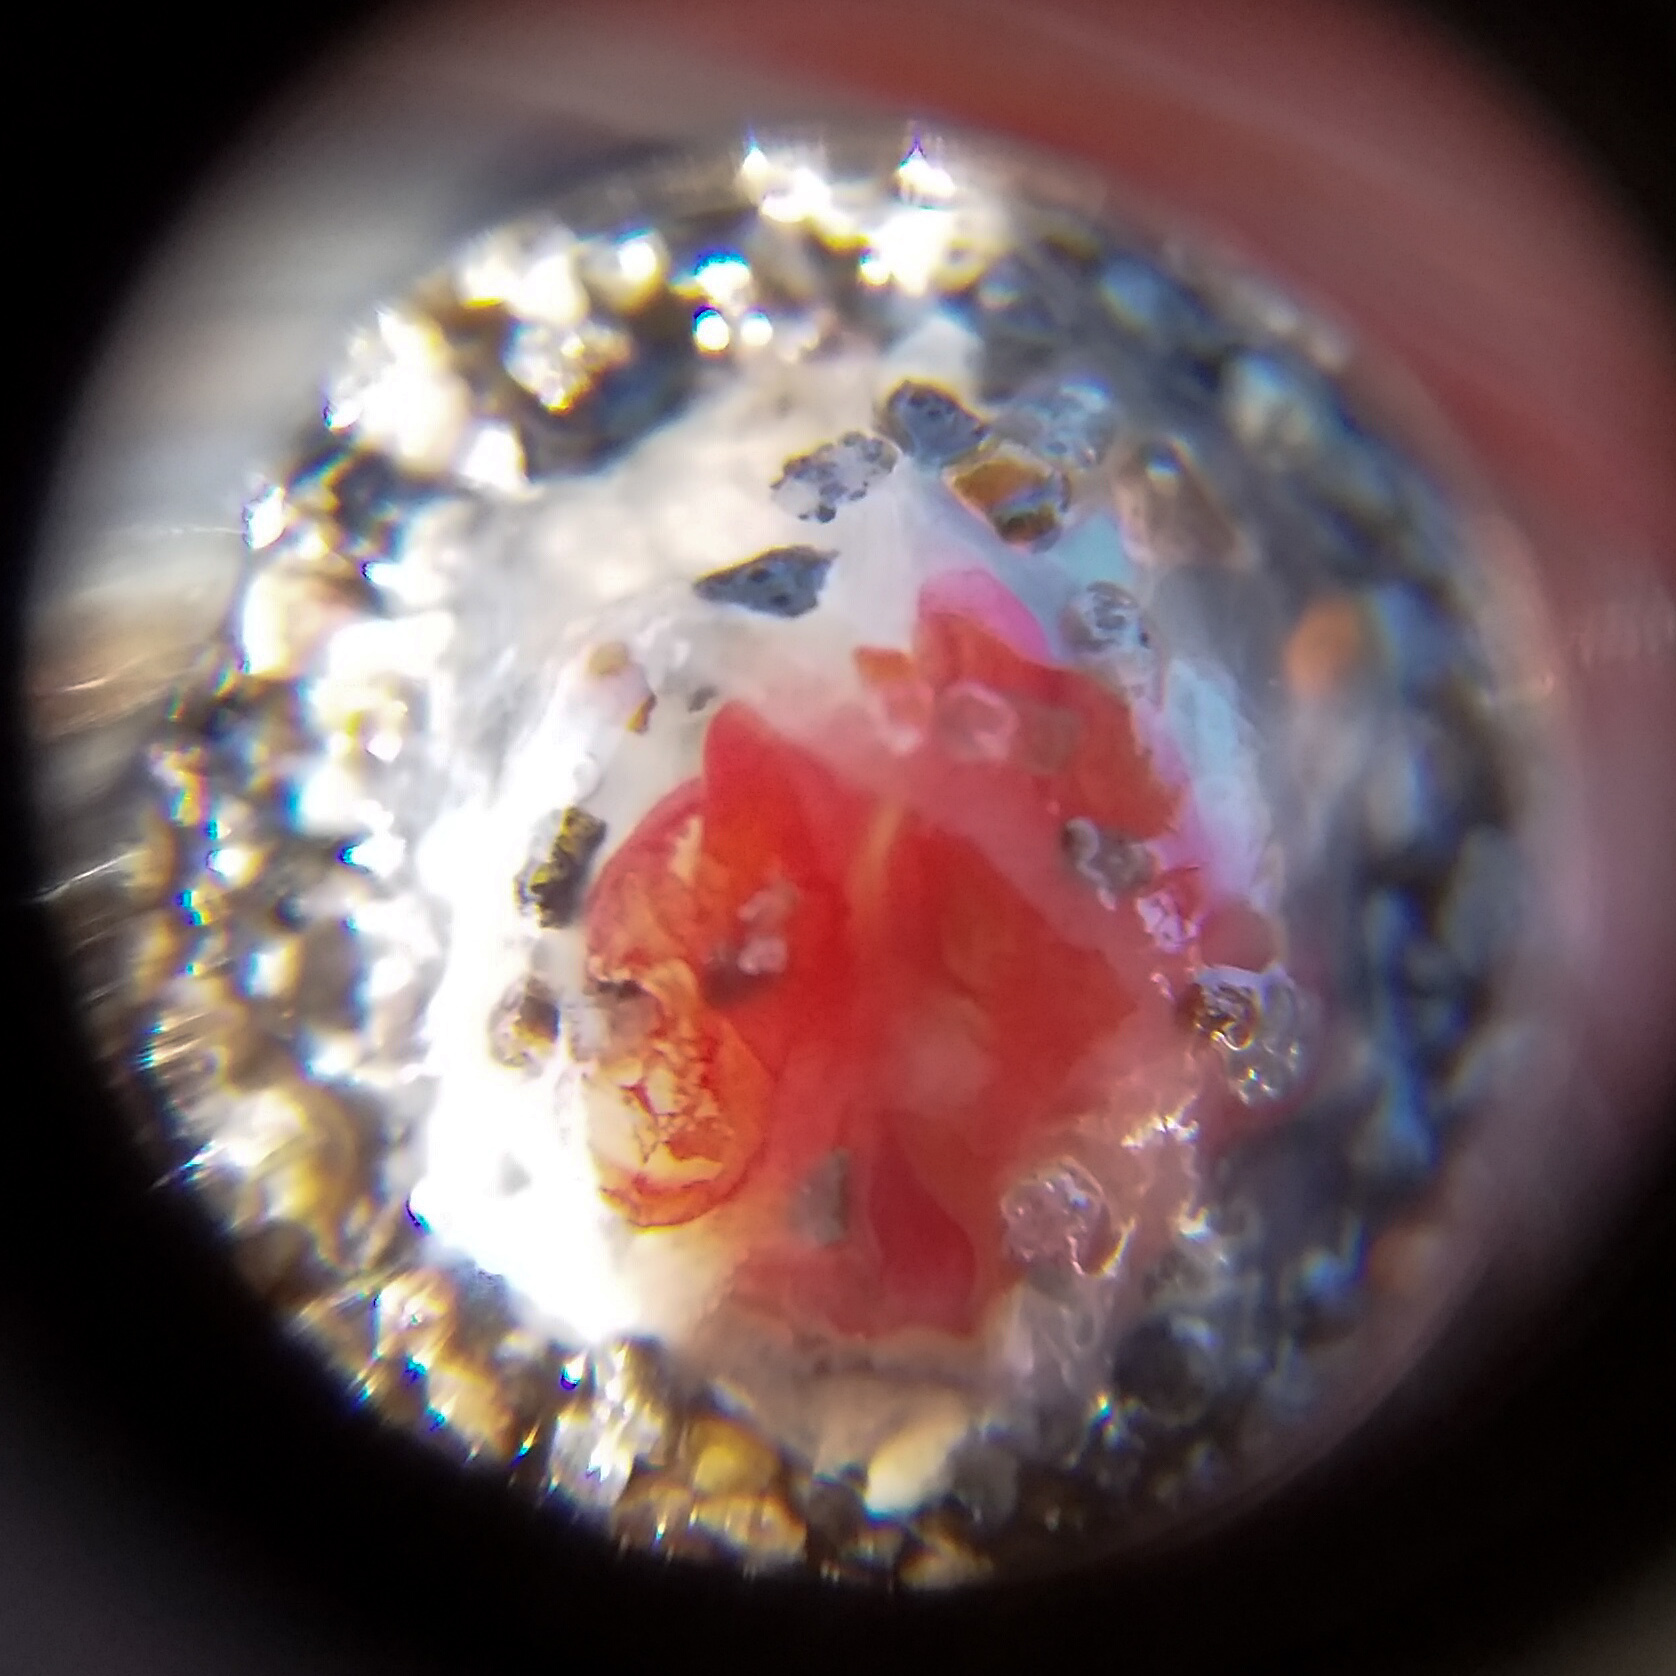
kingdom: Animalia
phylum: Cnidaria
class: Hydrozoa
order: Anthoathecata
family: Oceaniidae
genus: Turritopsis
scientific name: Turritopsis rubra
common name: Crimson jelly
